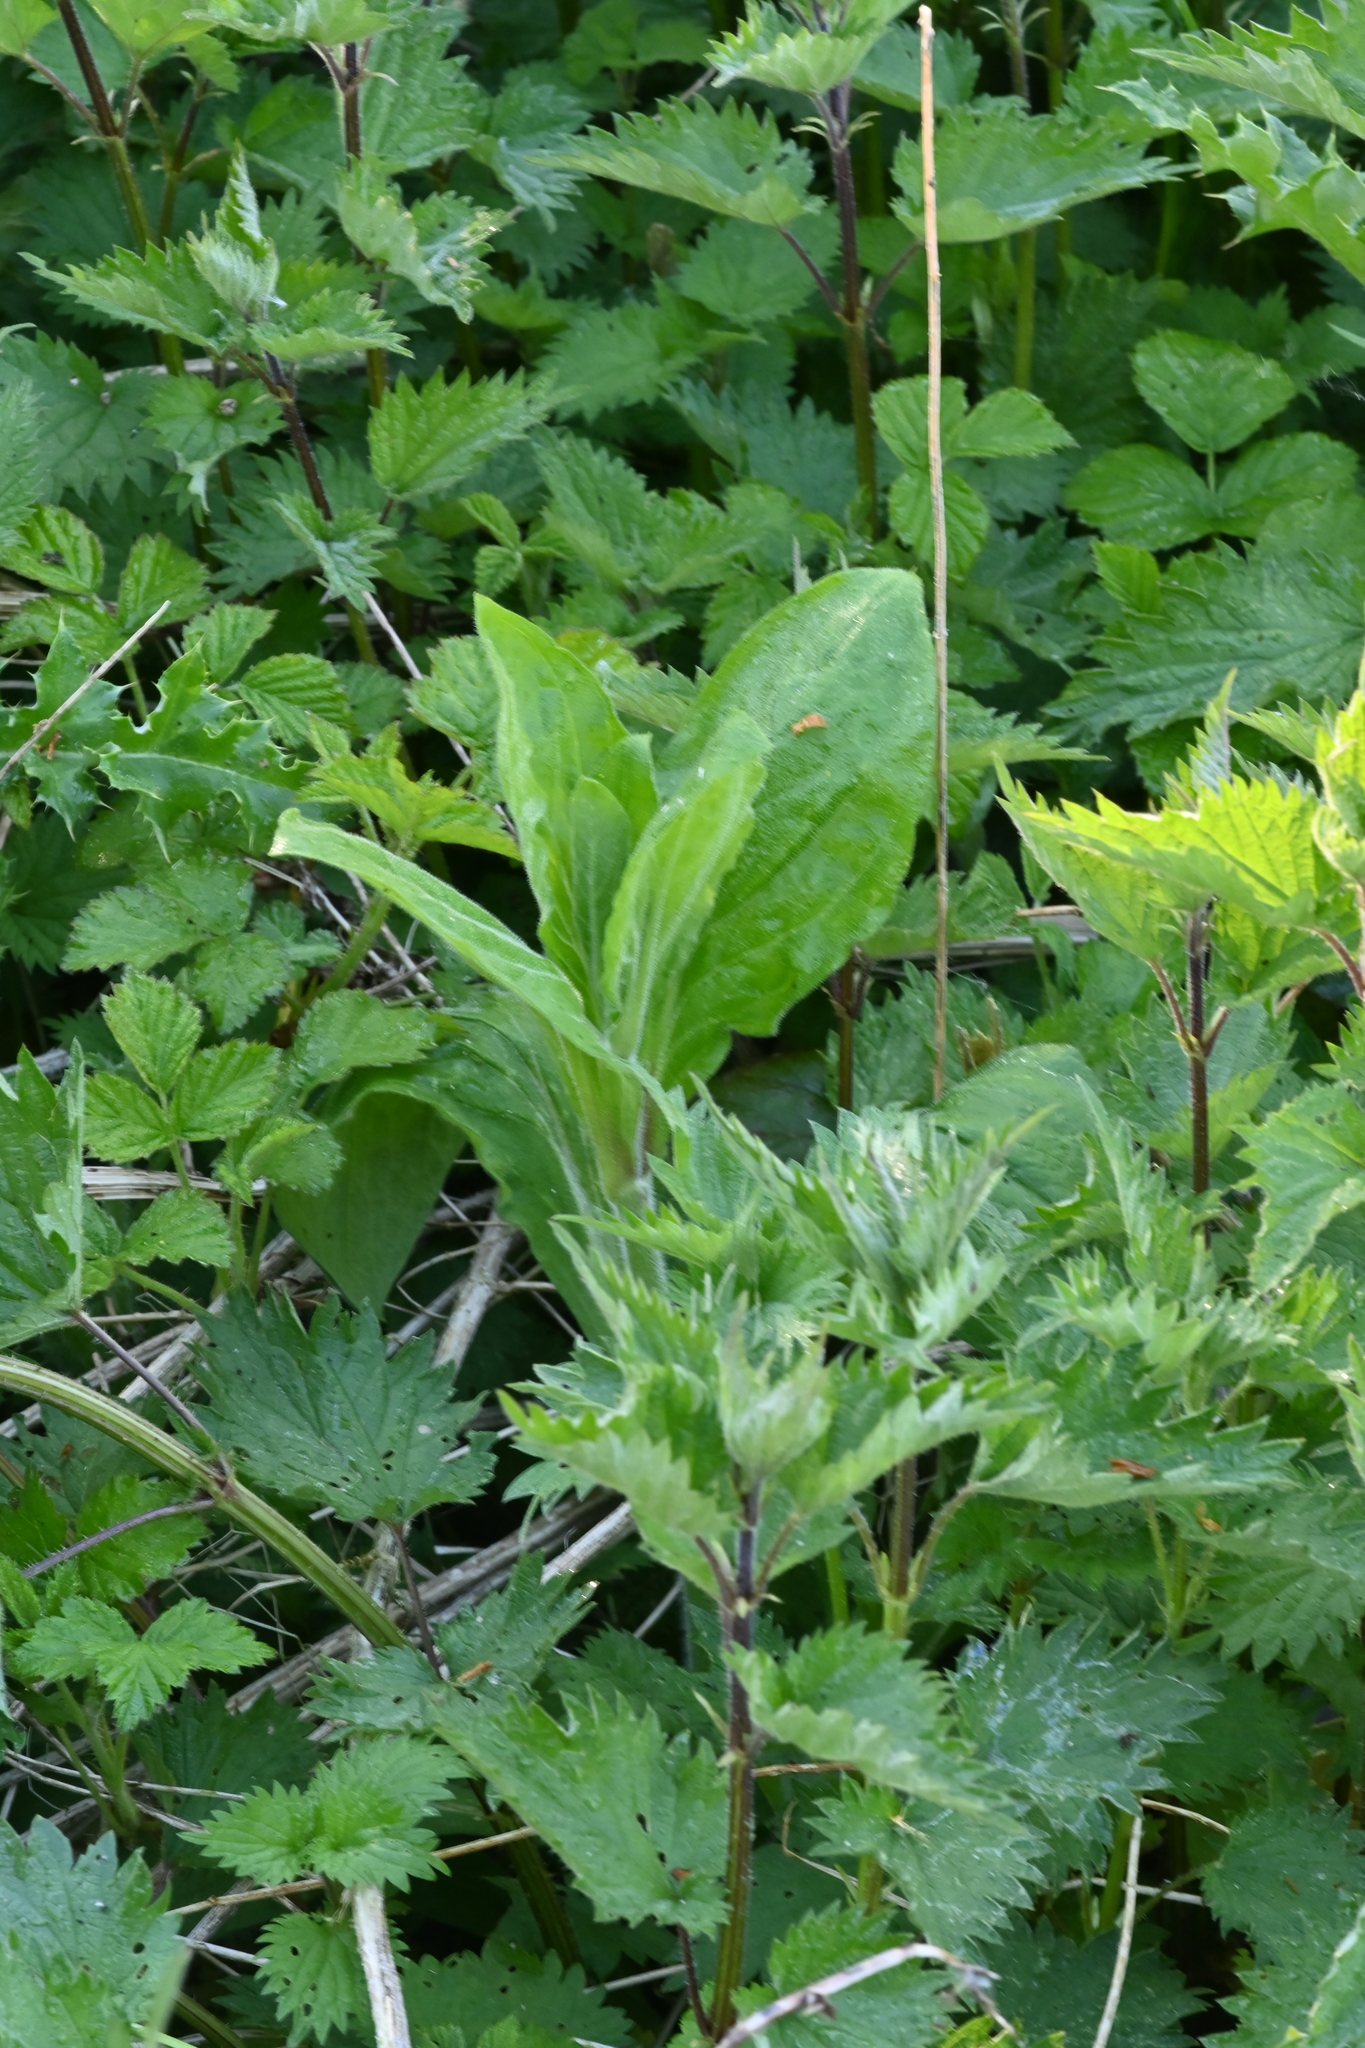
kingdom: Plantae
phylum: Tracheophyta
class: Magnoliopsida
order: Caryophyllales
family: Caryophyllaceae
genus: Silene
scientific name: Silene dioica
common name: Red campion
